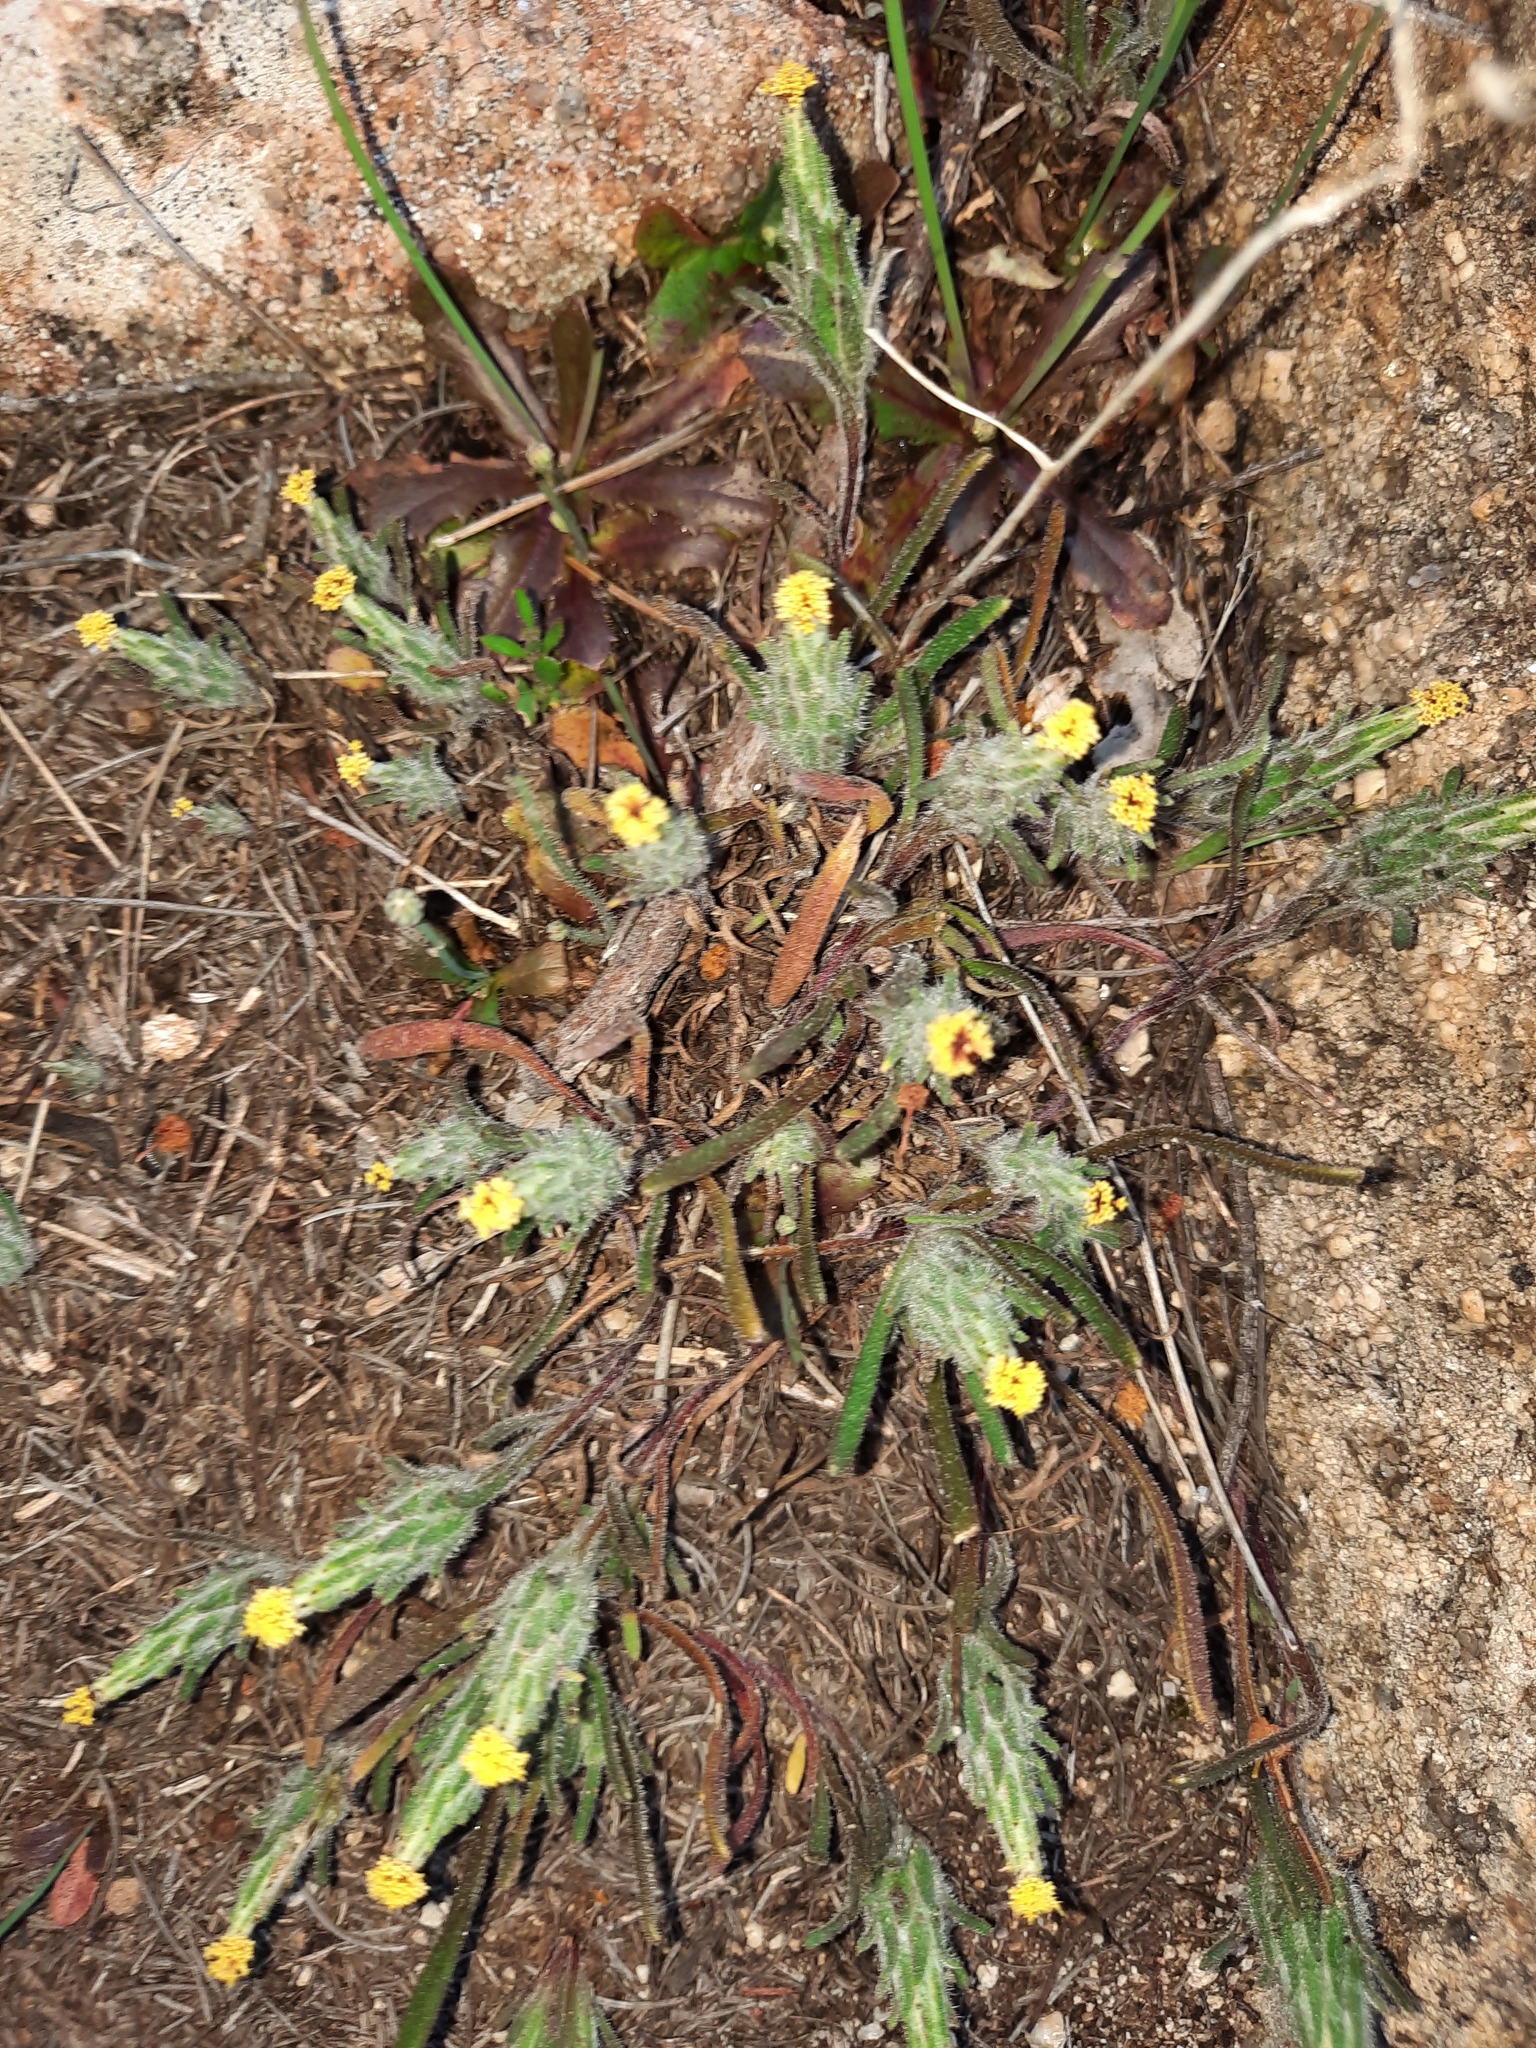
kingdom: Plantae
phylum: Tracheophyta
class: Magnoliopsida
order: Asterales
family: Asteraceae
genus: Podotheca
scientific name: Podotheca angustifolia
